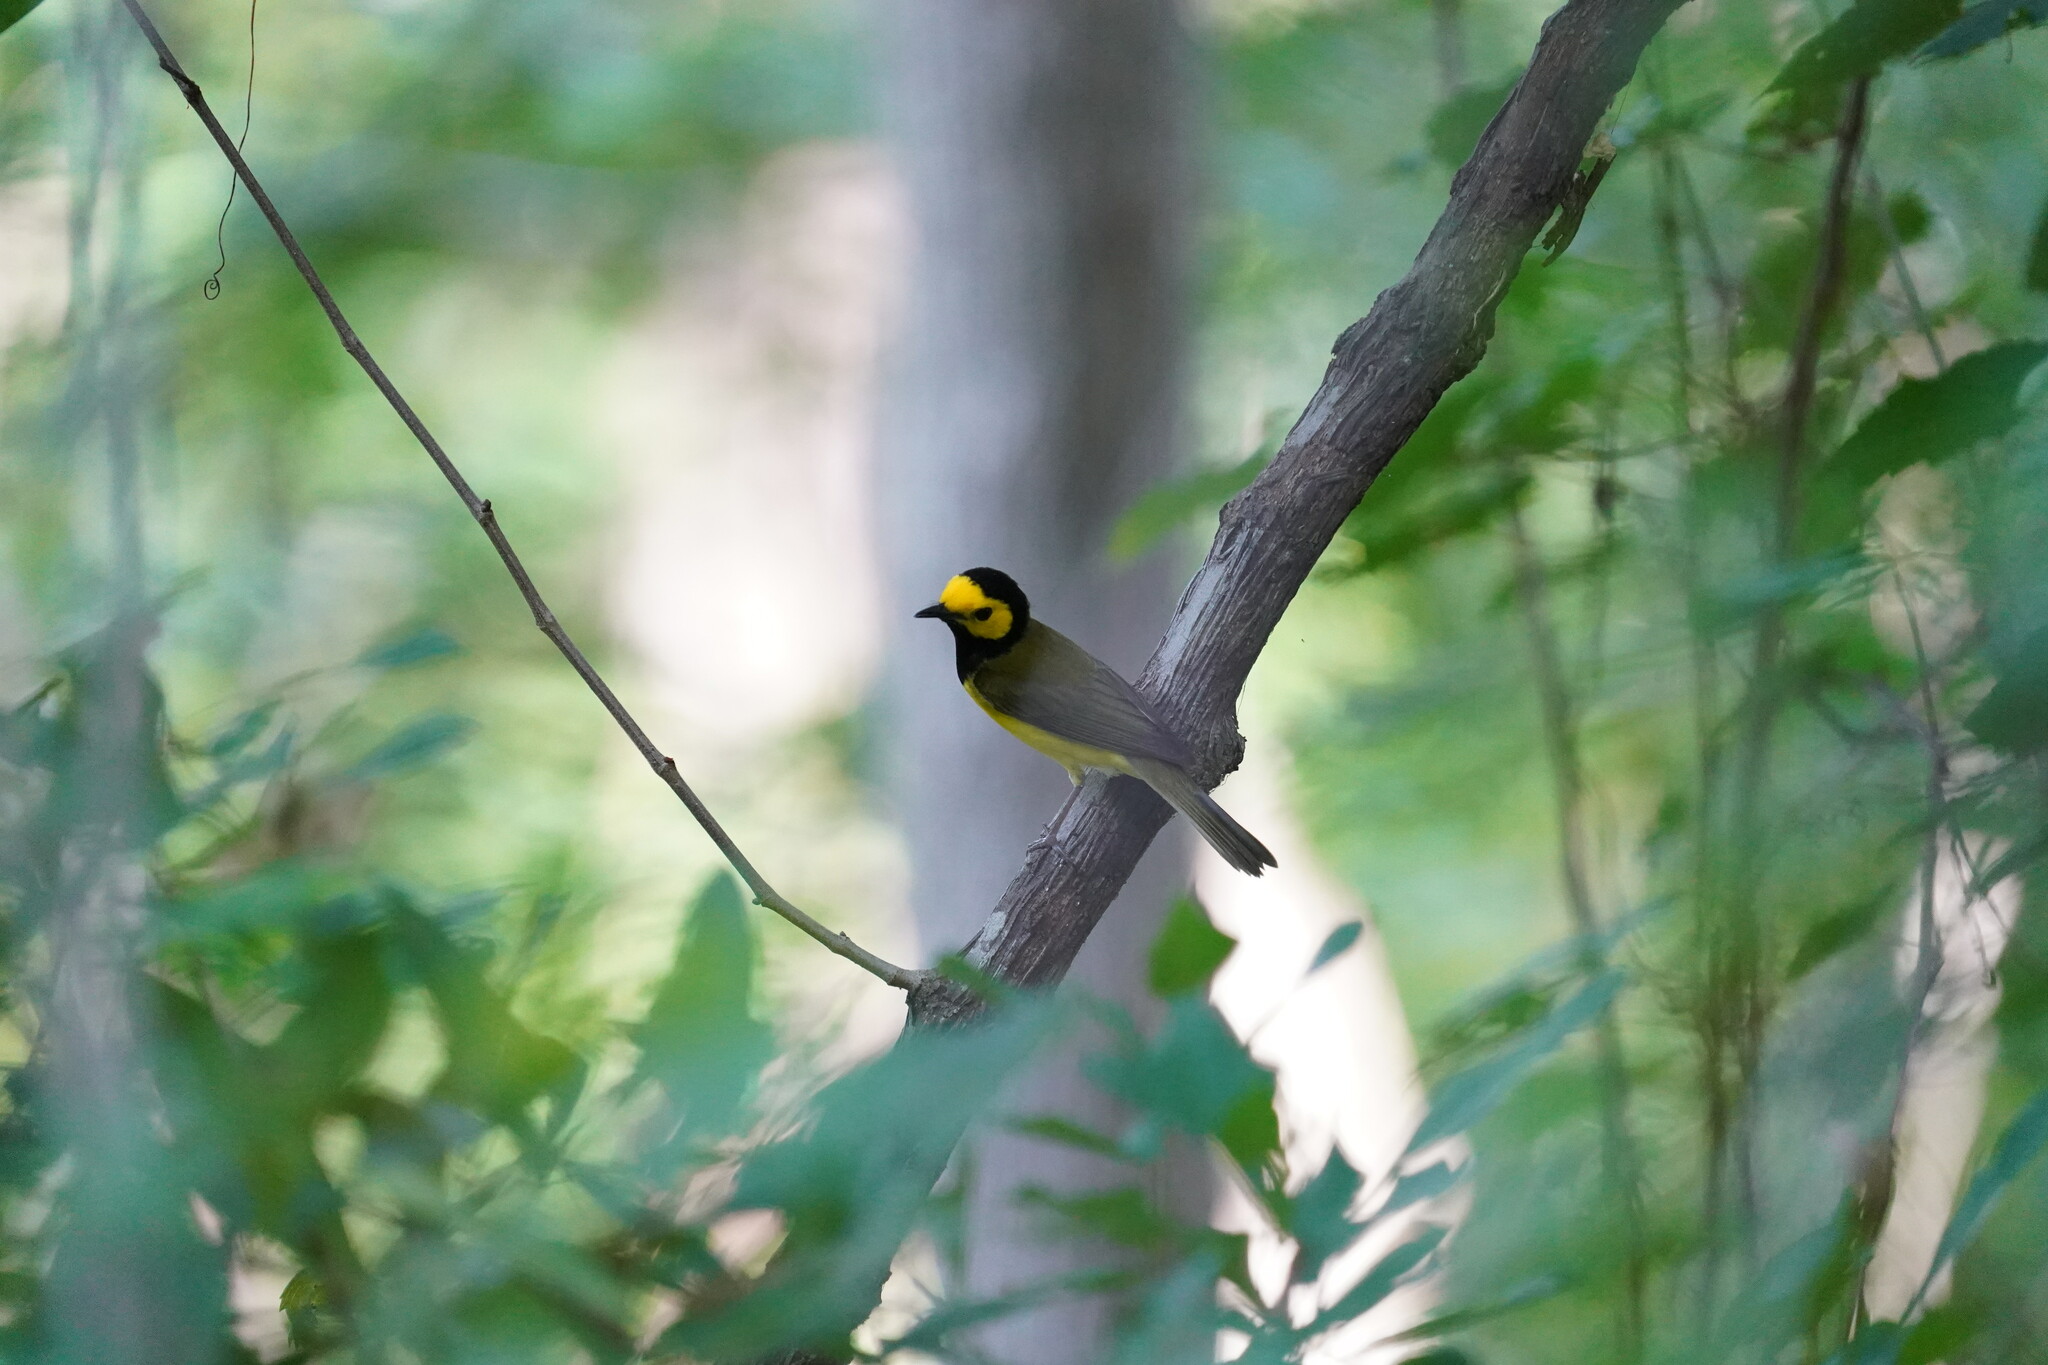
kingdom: Animalia
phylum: Chordata
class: Aves
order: Passeriformes
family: Parulidae
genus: Setophaga
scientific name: Setophaga citrina
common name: Hooded warbler
